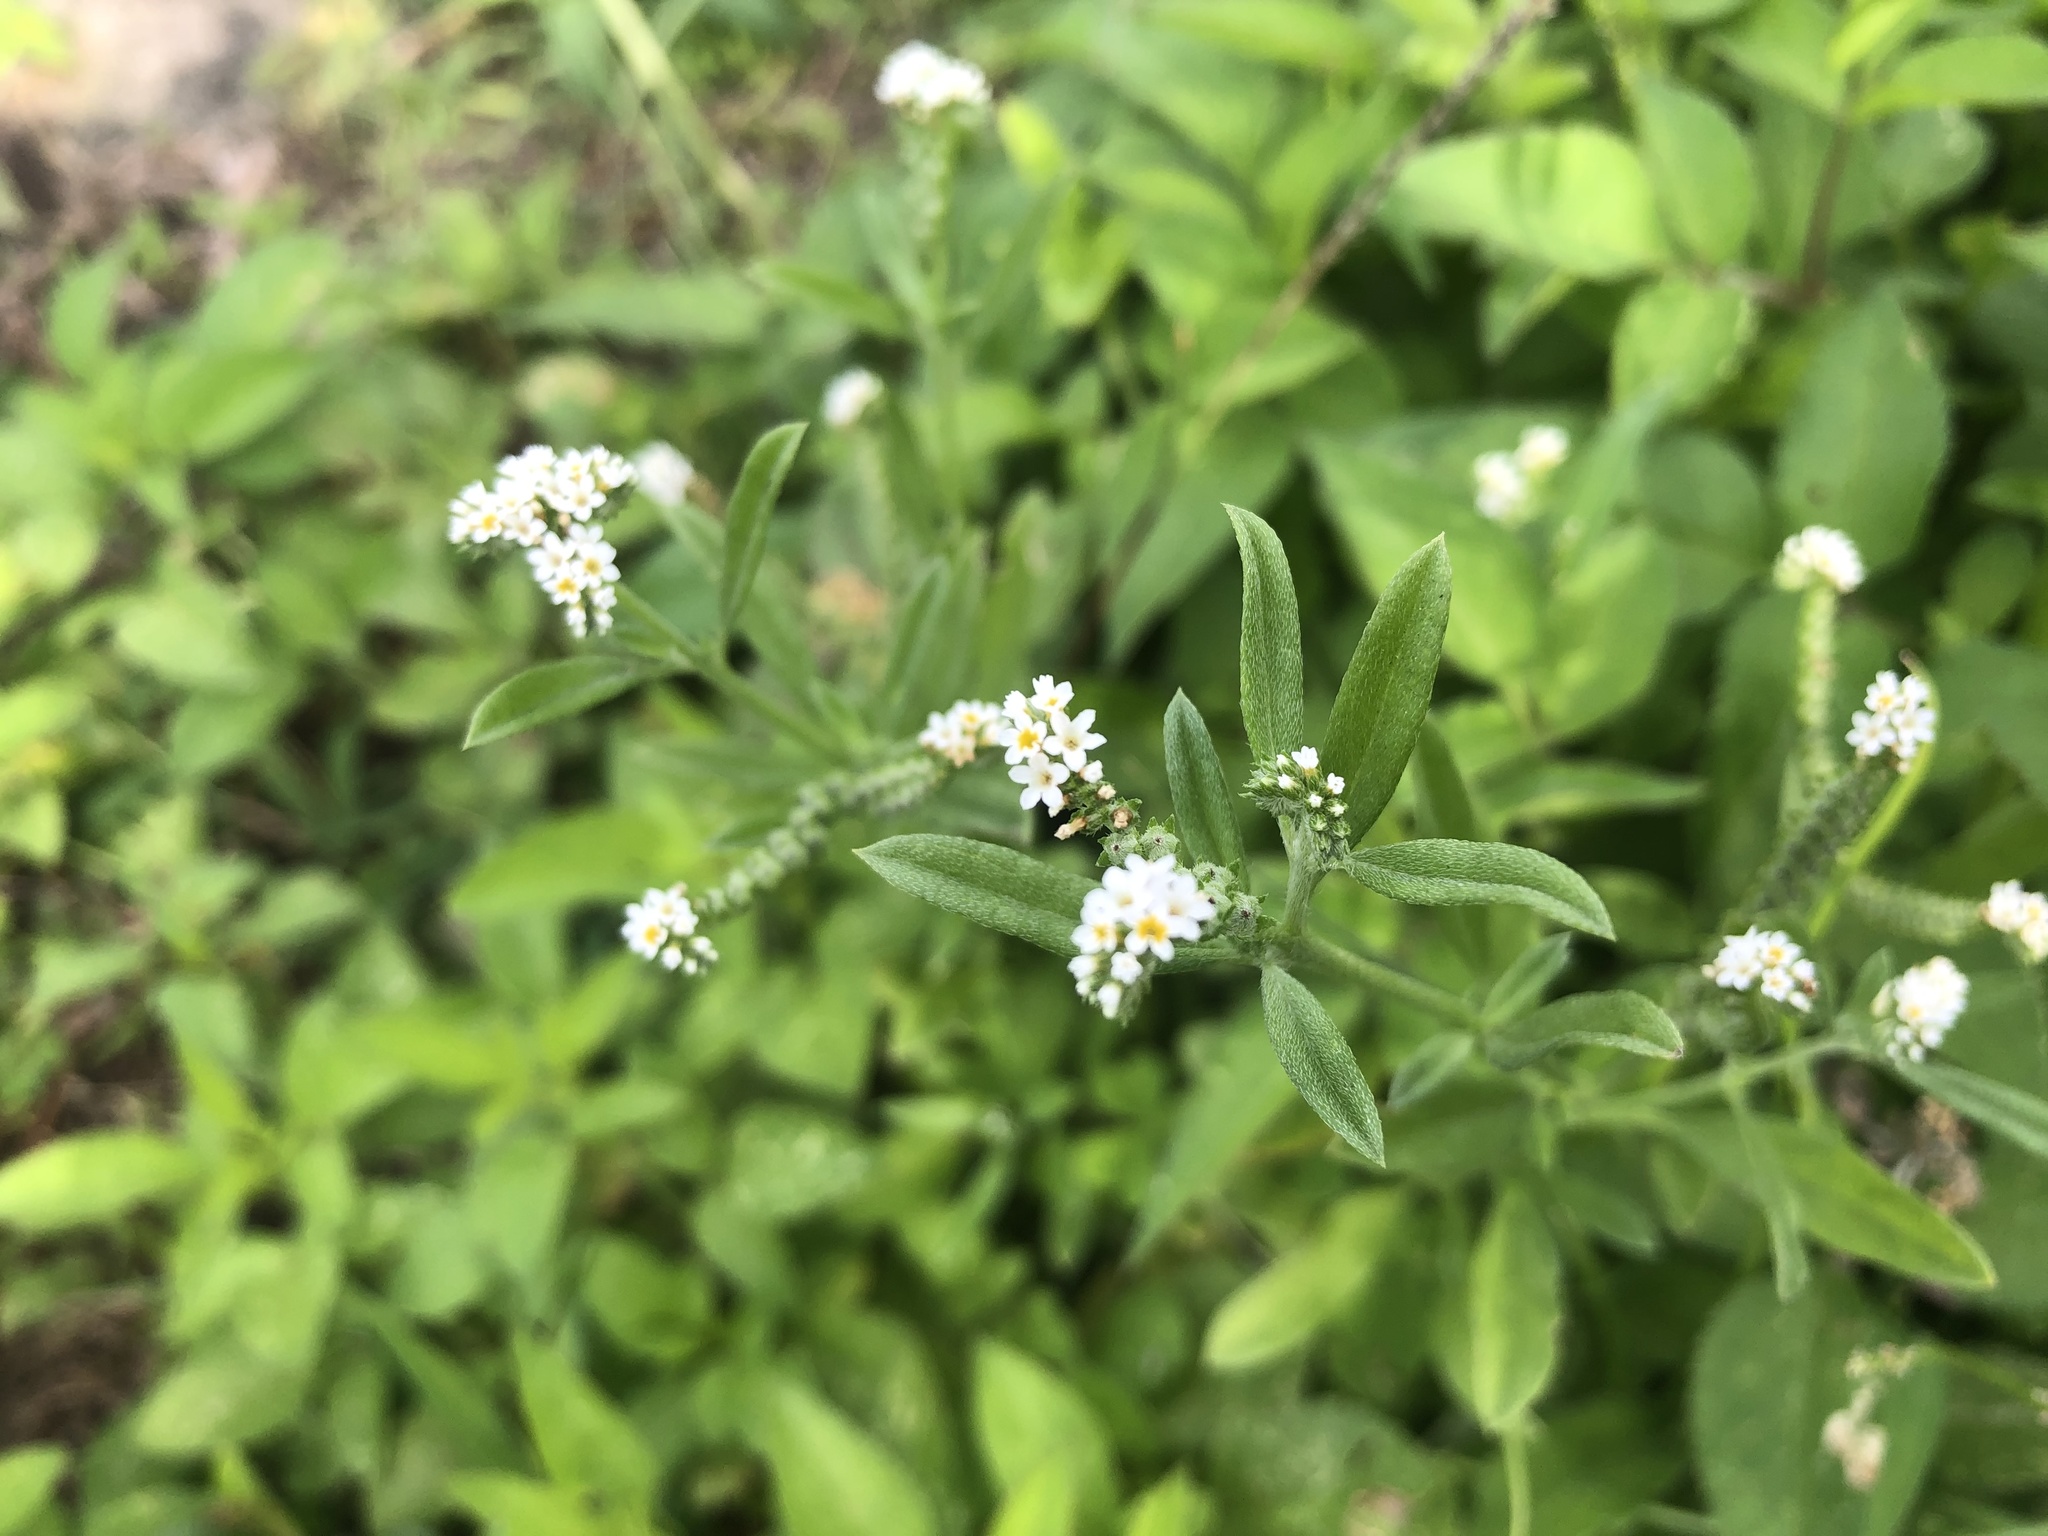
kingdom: Plantae
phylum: Tracheophyta
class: Magnoliopsida
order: Boraginales
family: Heliotropiaceae
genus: Euploca
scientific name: Euploca procumbens
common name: Fourspike heliotrope
